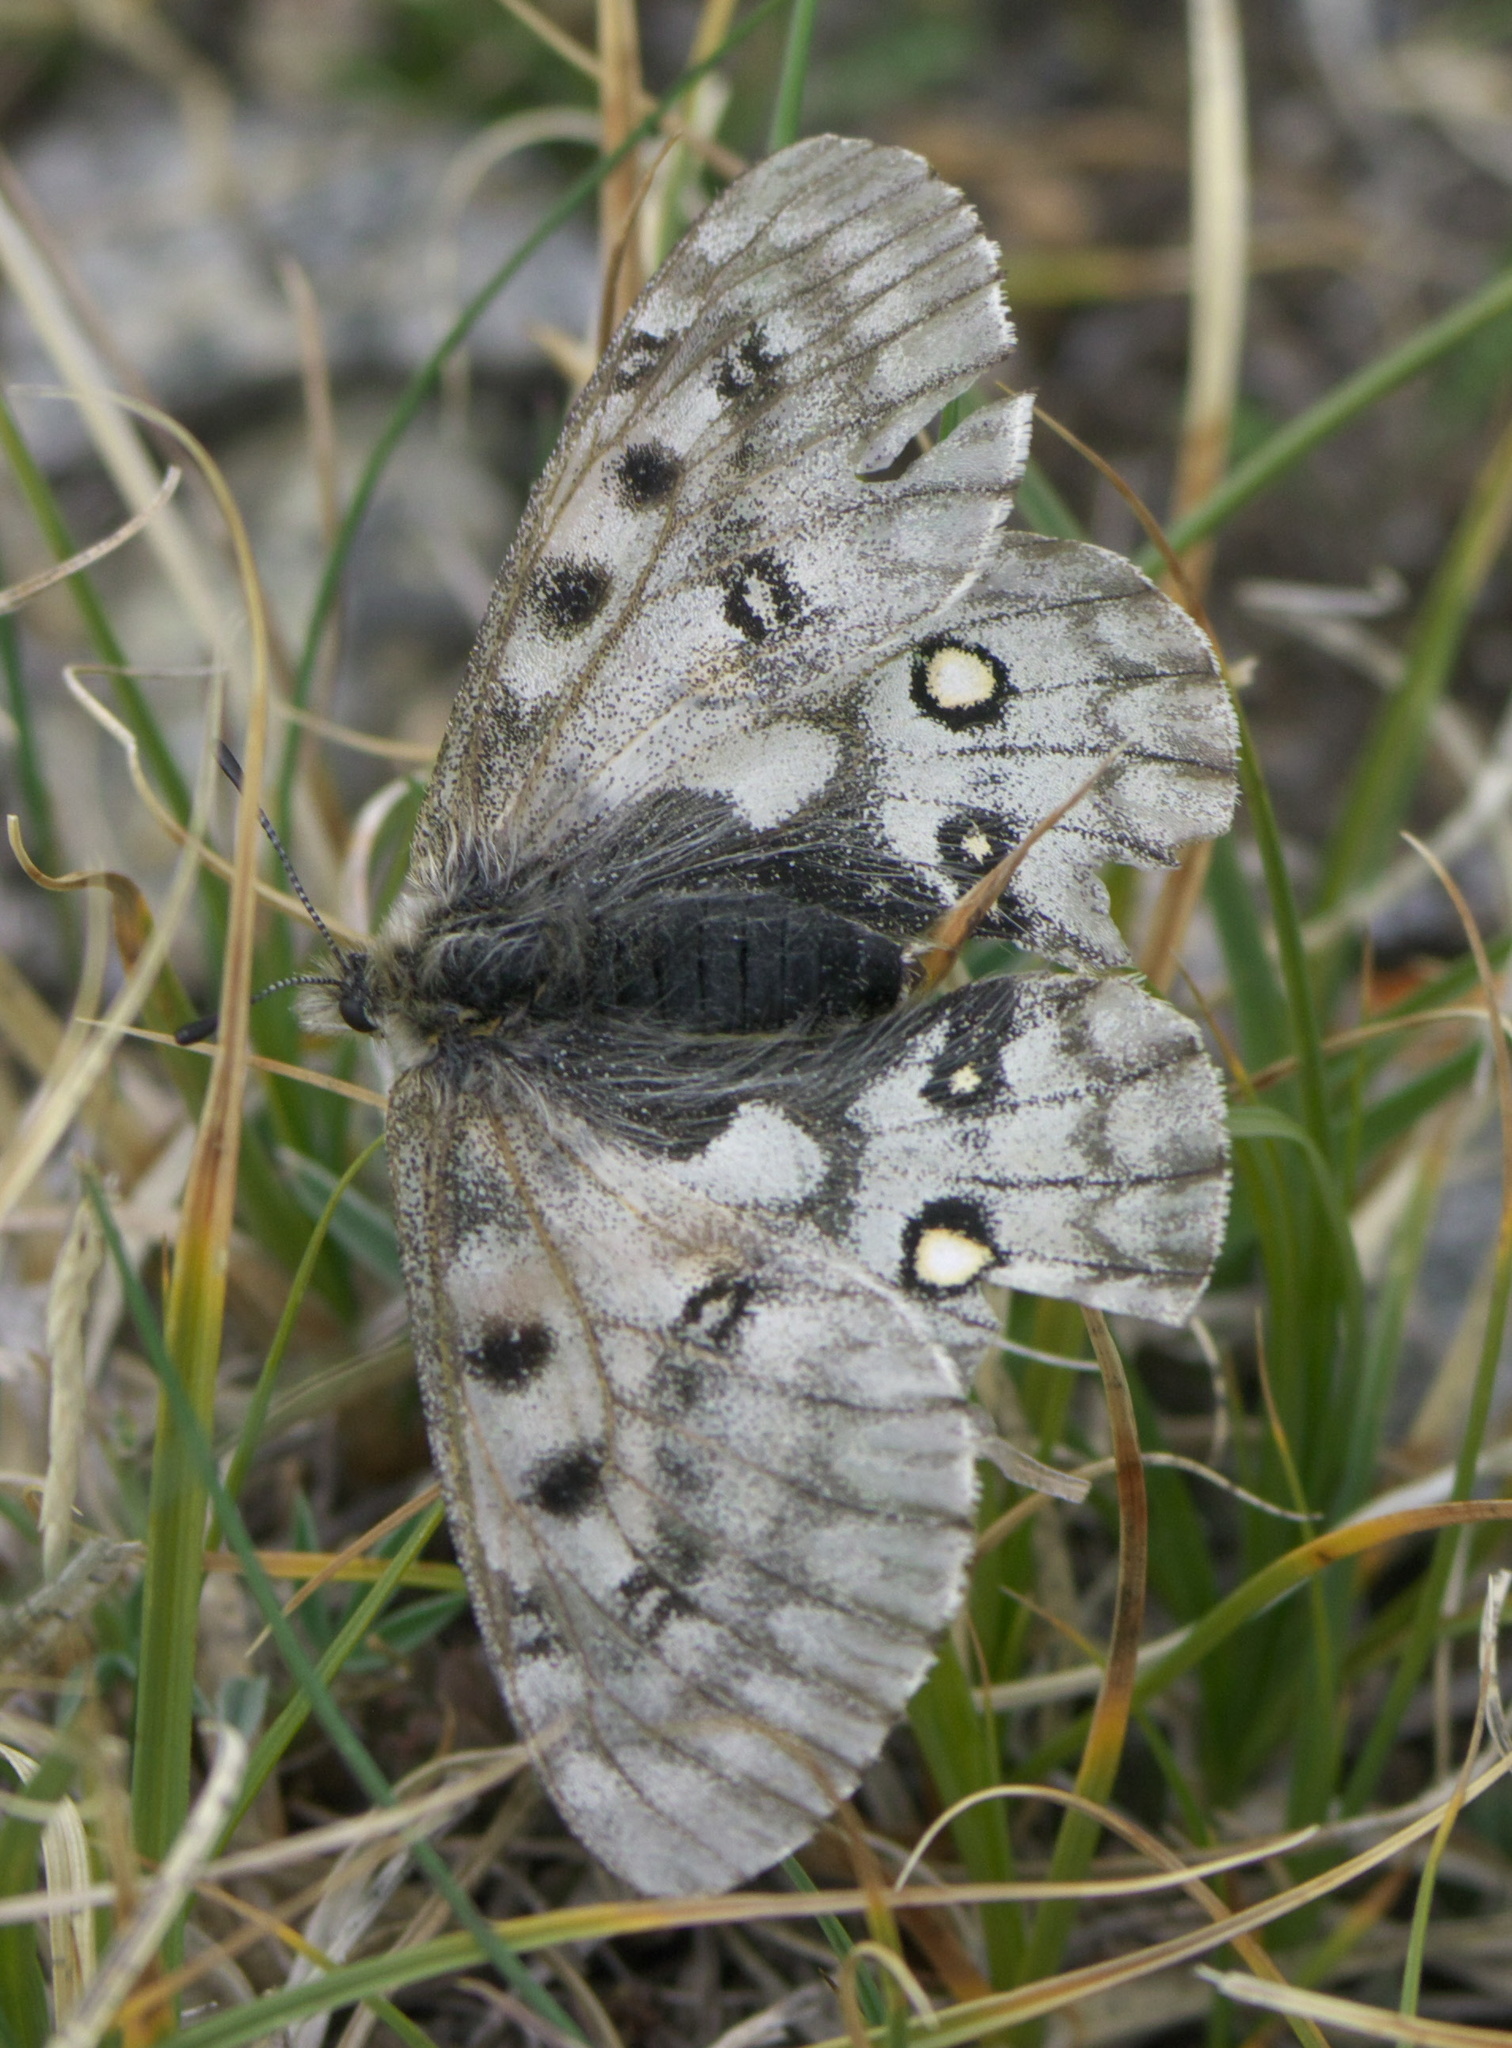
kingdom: Animalia
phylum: Arthropoda
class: Insecta
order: Lepidoptera
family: Papilionidae
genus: Parnassius
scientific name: Parnassius smintheus
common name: Mountain parnassian
